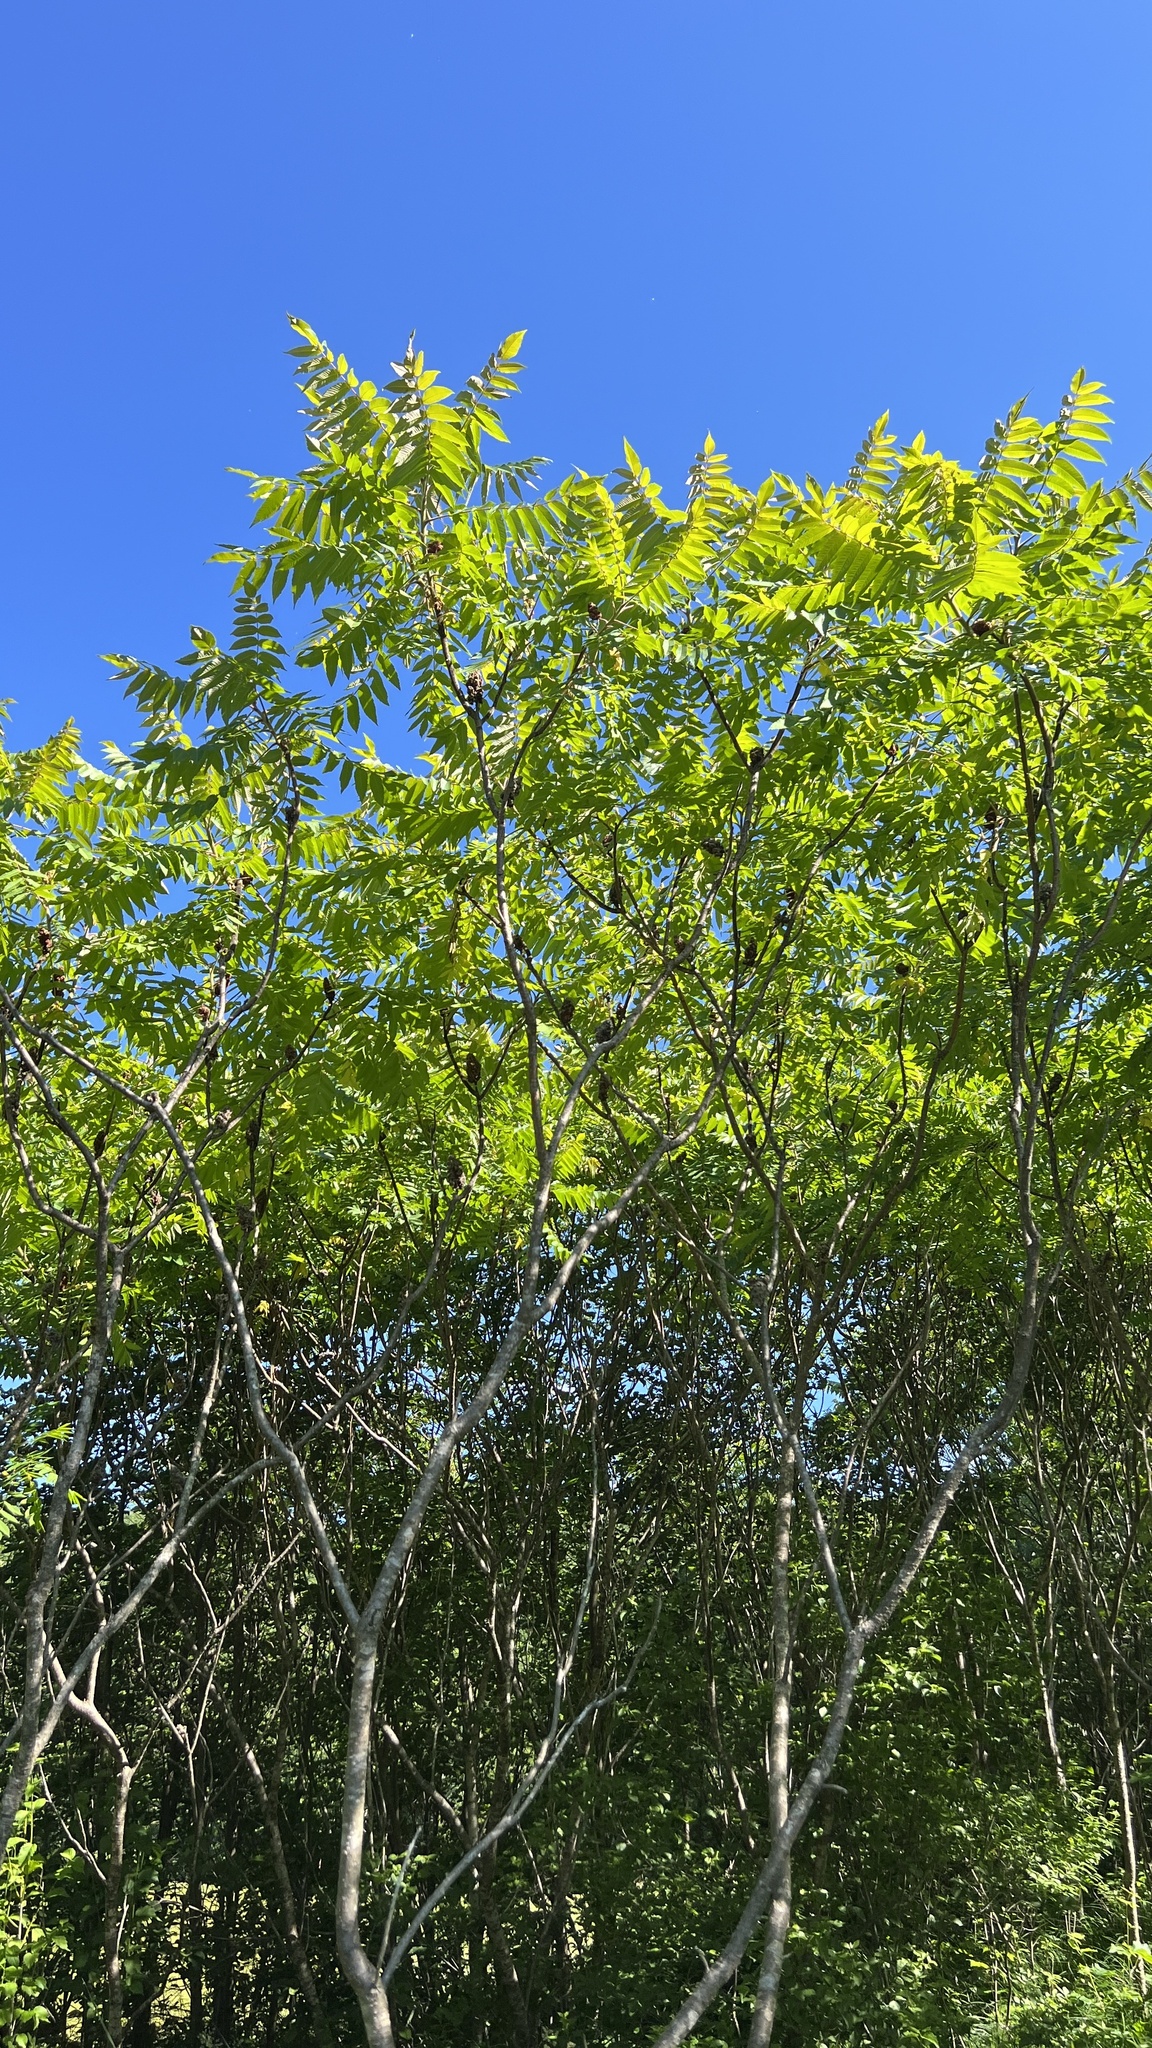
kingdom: Plantae
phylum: Tracheophyta
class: Magnoliopsida
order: Sapindales
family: Anacardiaceae
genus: Rhus
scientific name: Rhus typhina
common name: Staghorn sumac
